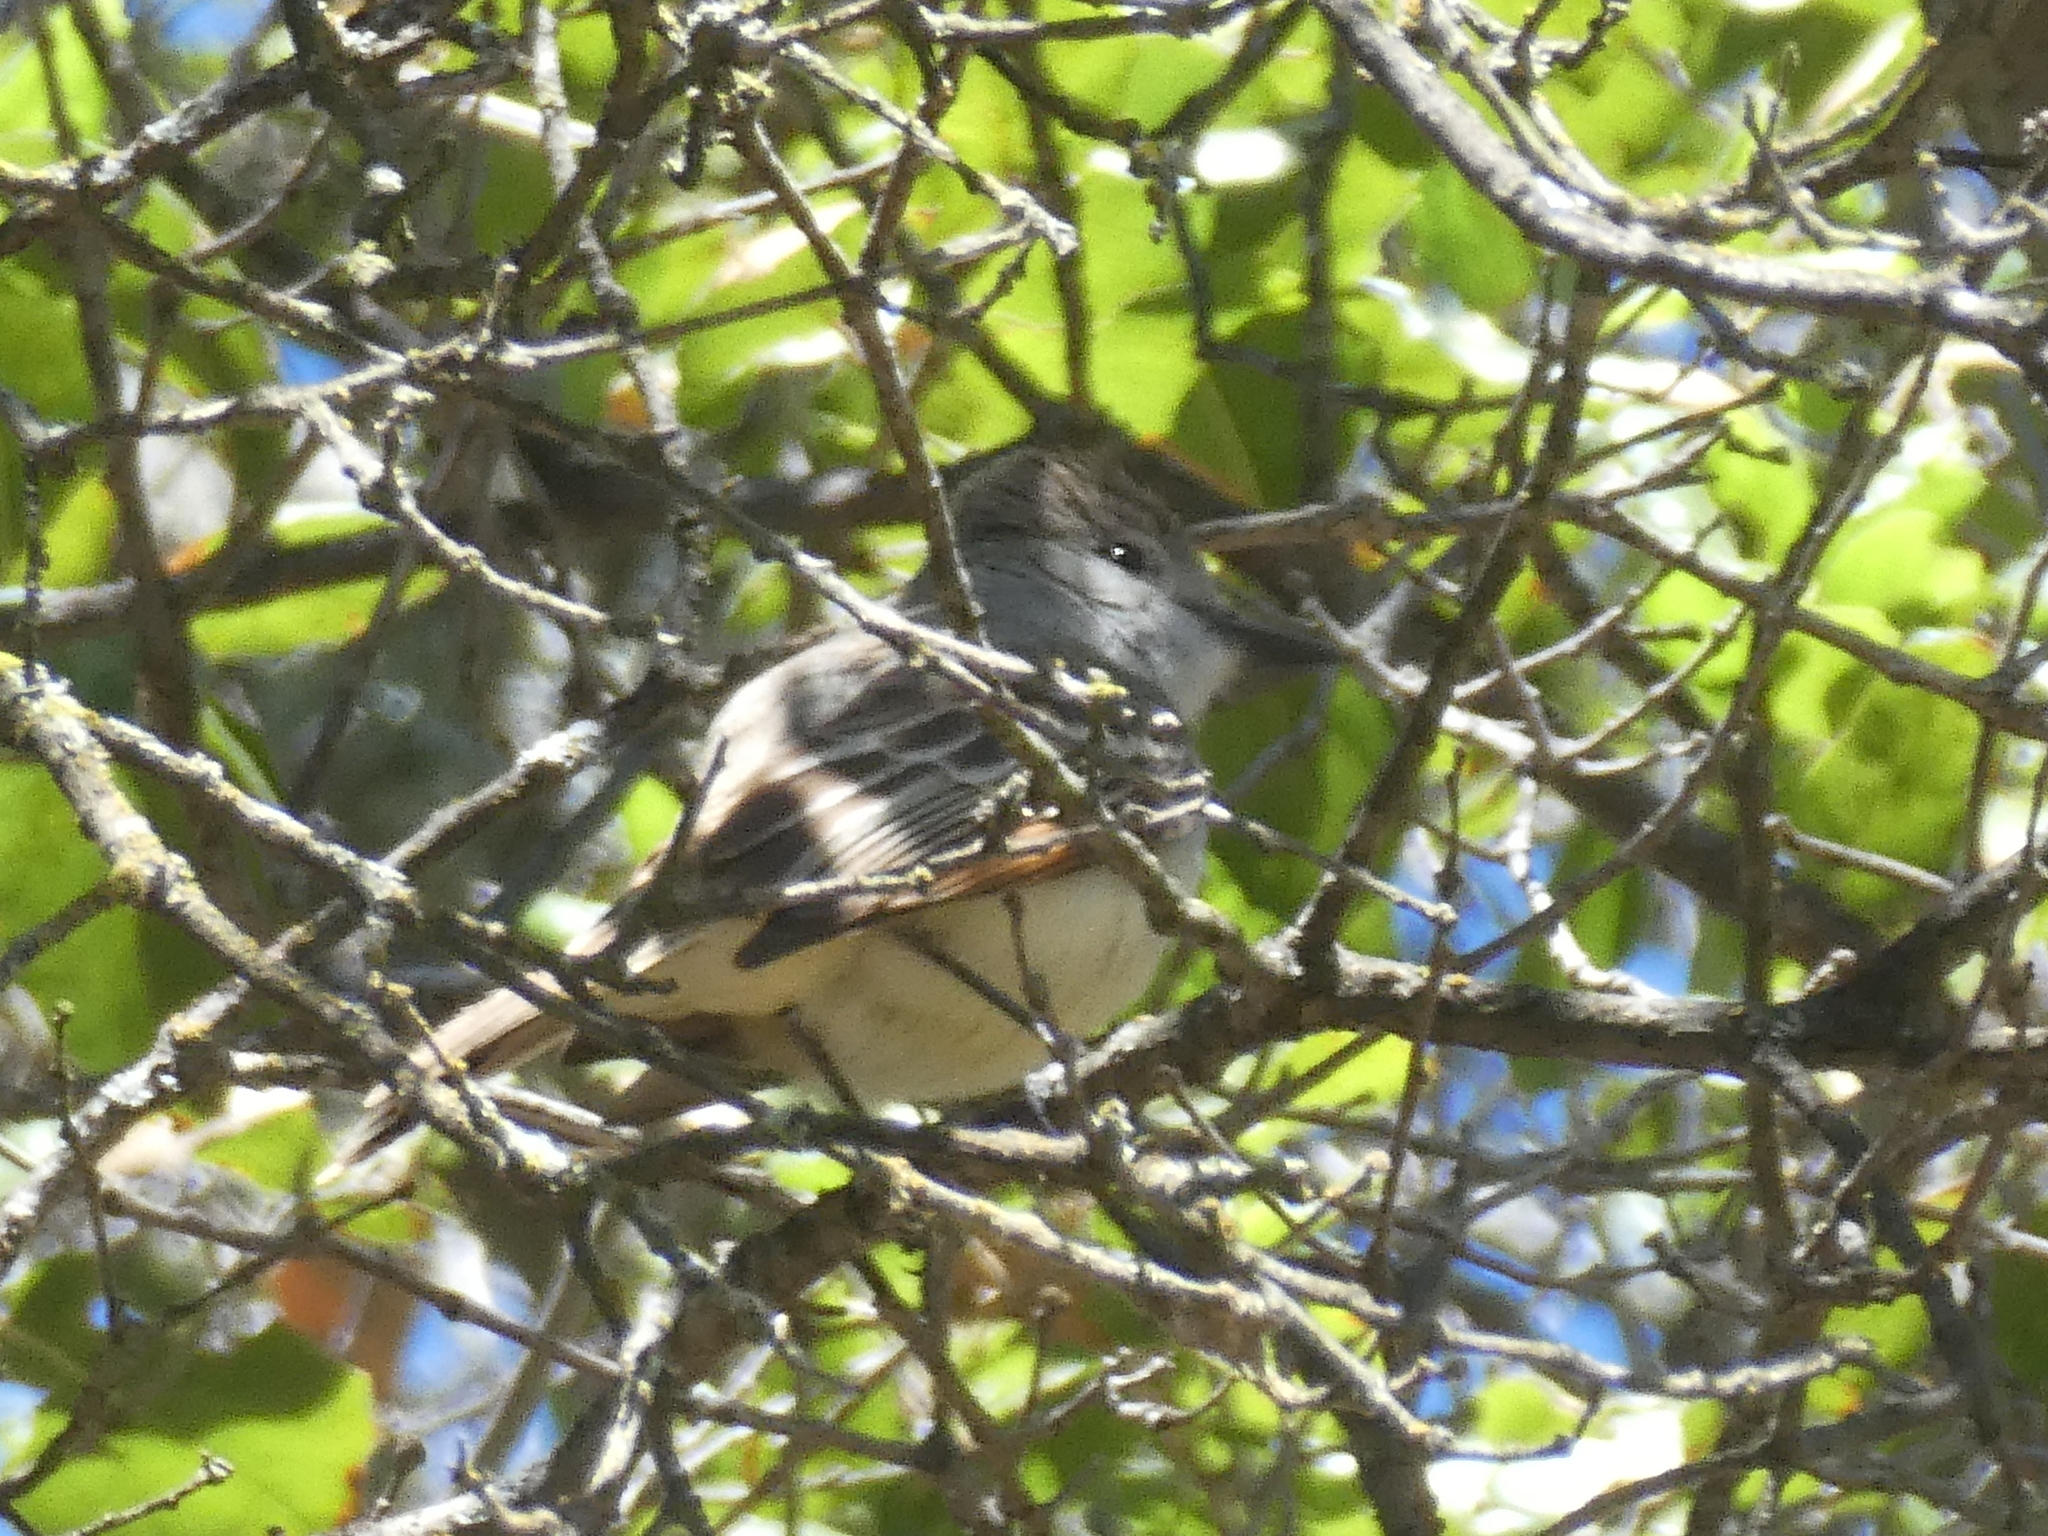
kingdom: Animalia
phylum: Chordata
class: Aves
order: Passeriformes
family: Tyrannidae
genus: Myiarchus
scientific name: Myiarchus cinerascens
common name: Ash-throated flycatcher
